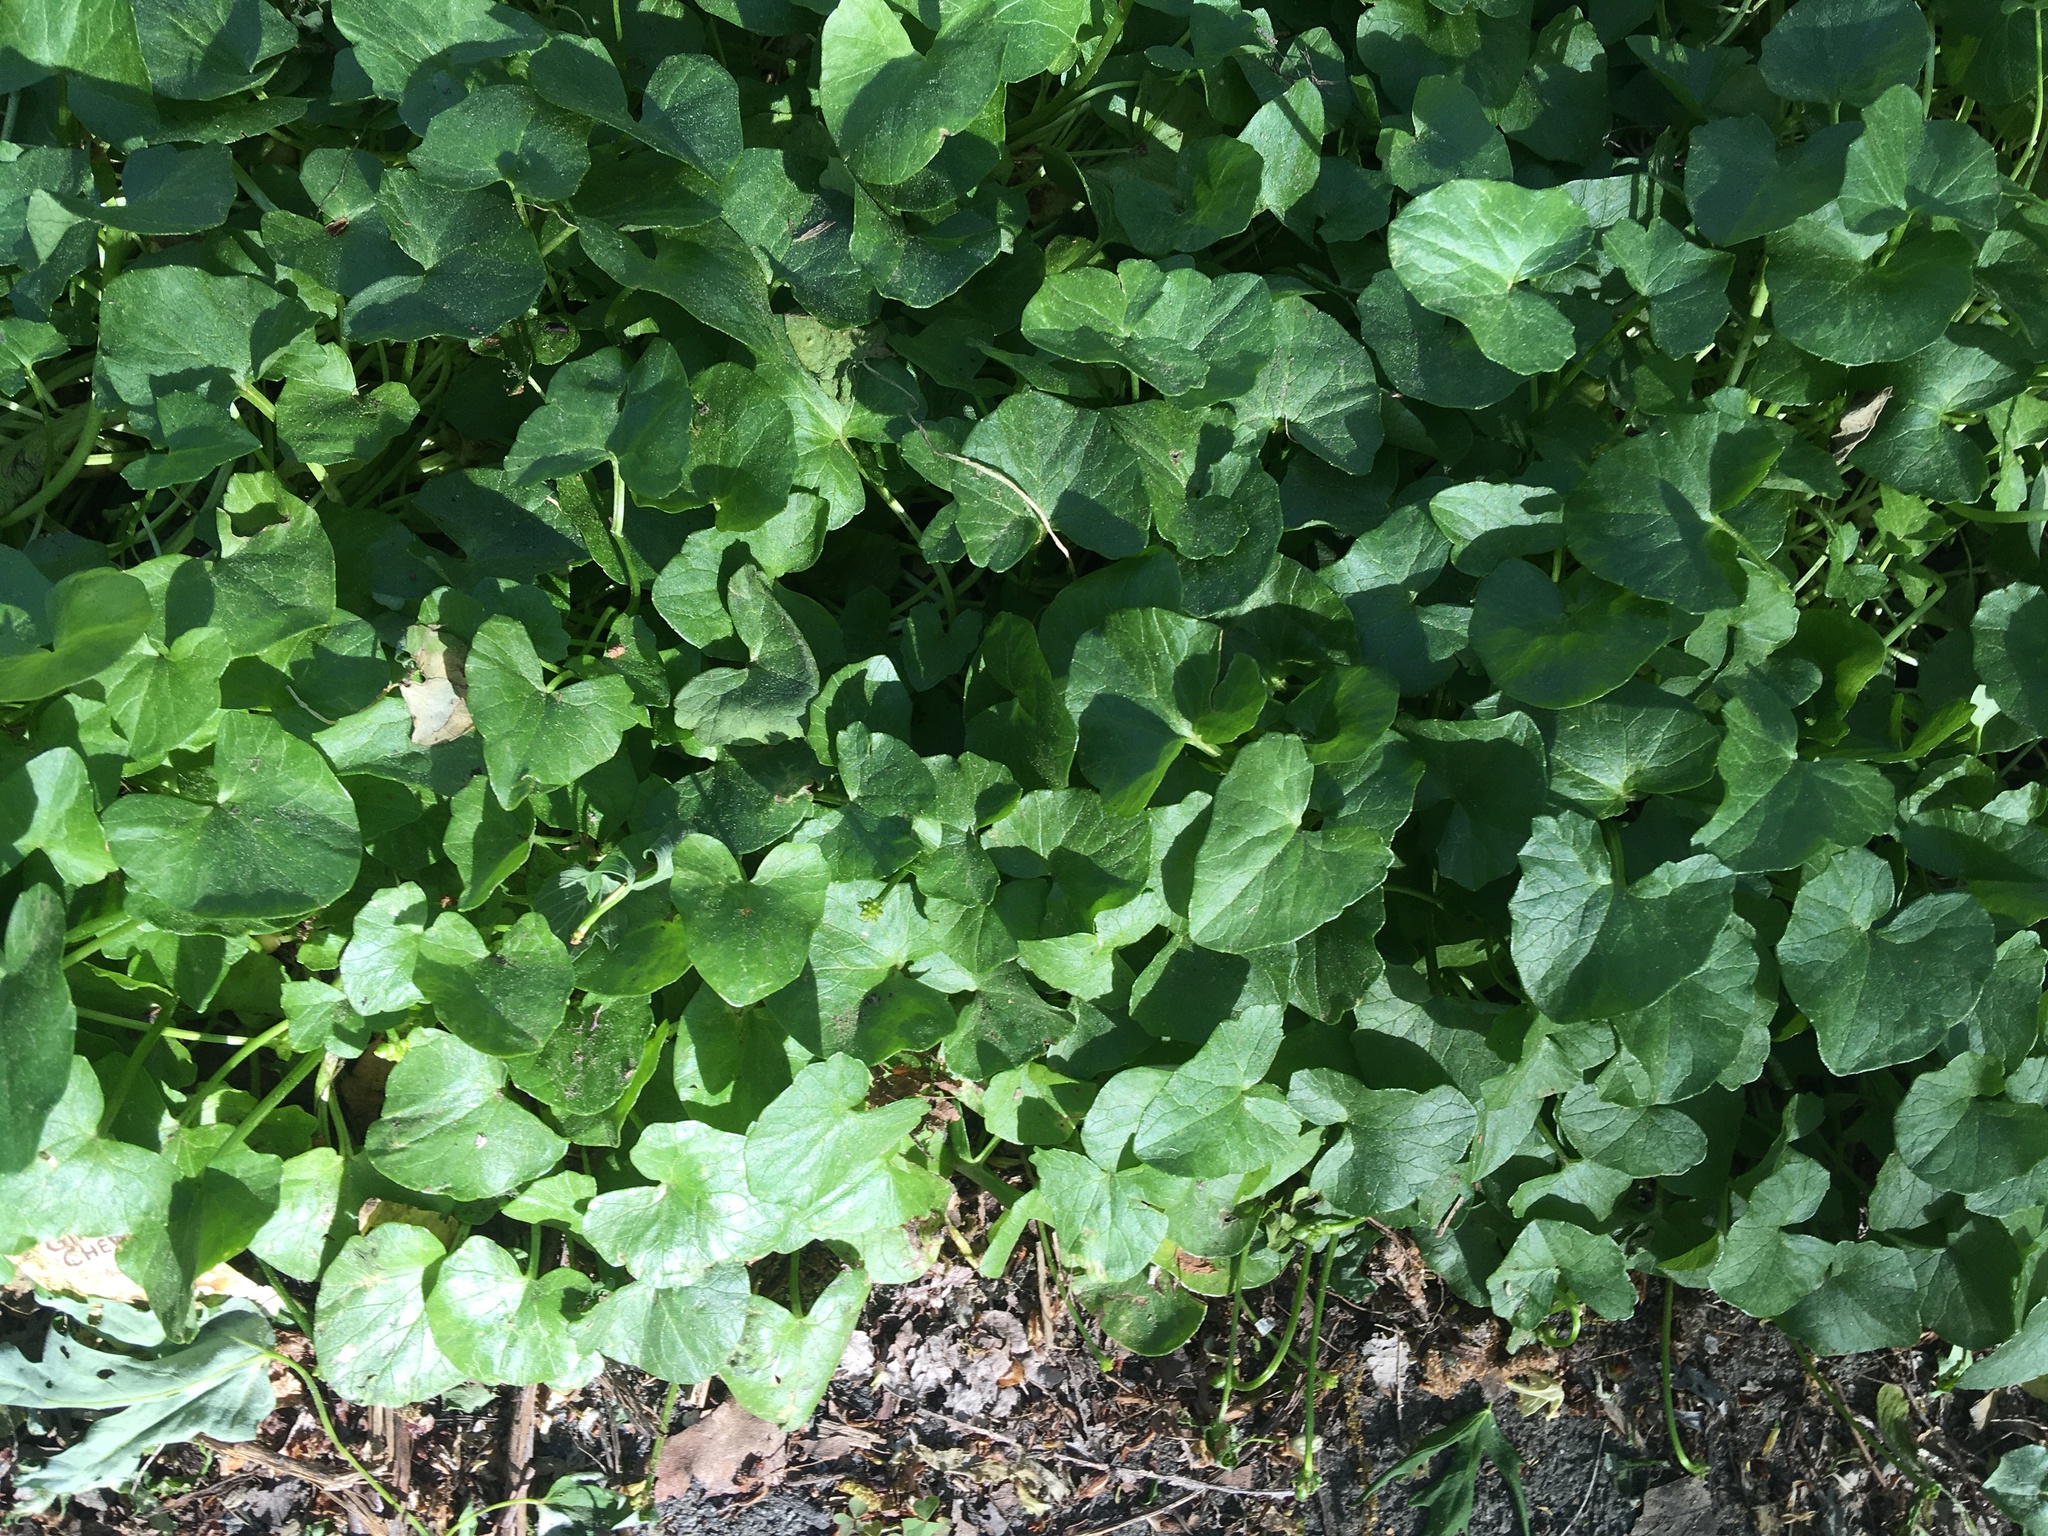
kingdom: Plantae
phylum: Tracheophyta
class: Magnoliopsida
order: Ranunculales
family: Ranunculaceae
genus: Ficaria
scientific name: Ficaria verna
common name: Lesser celandine
